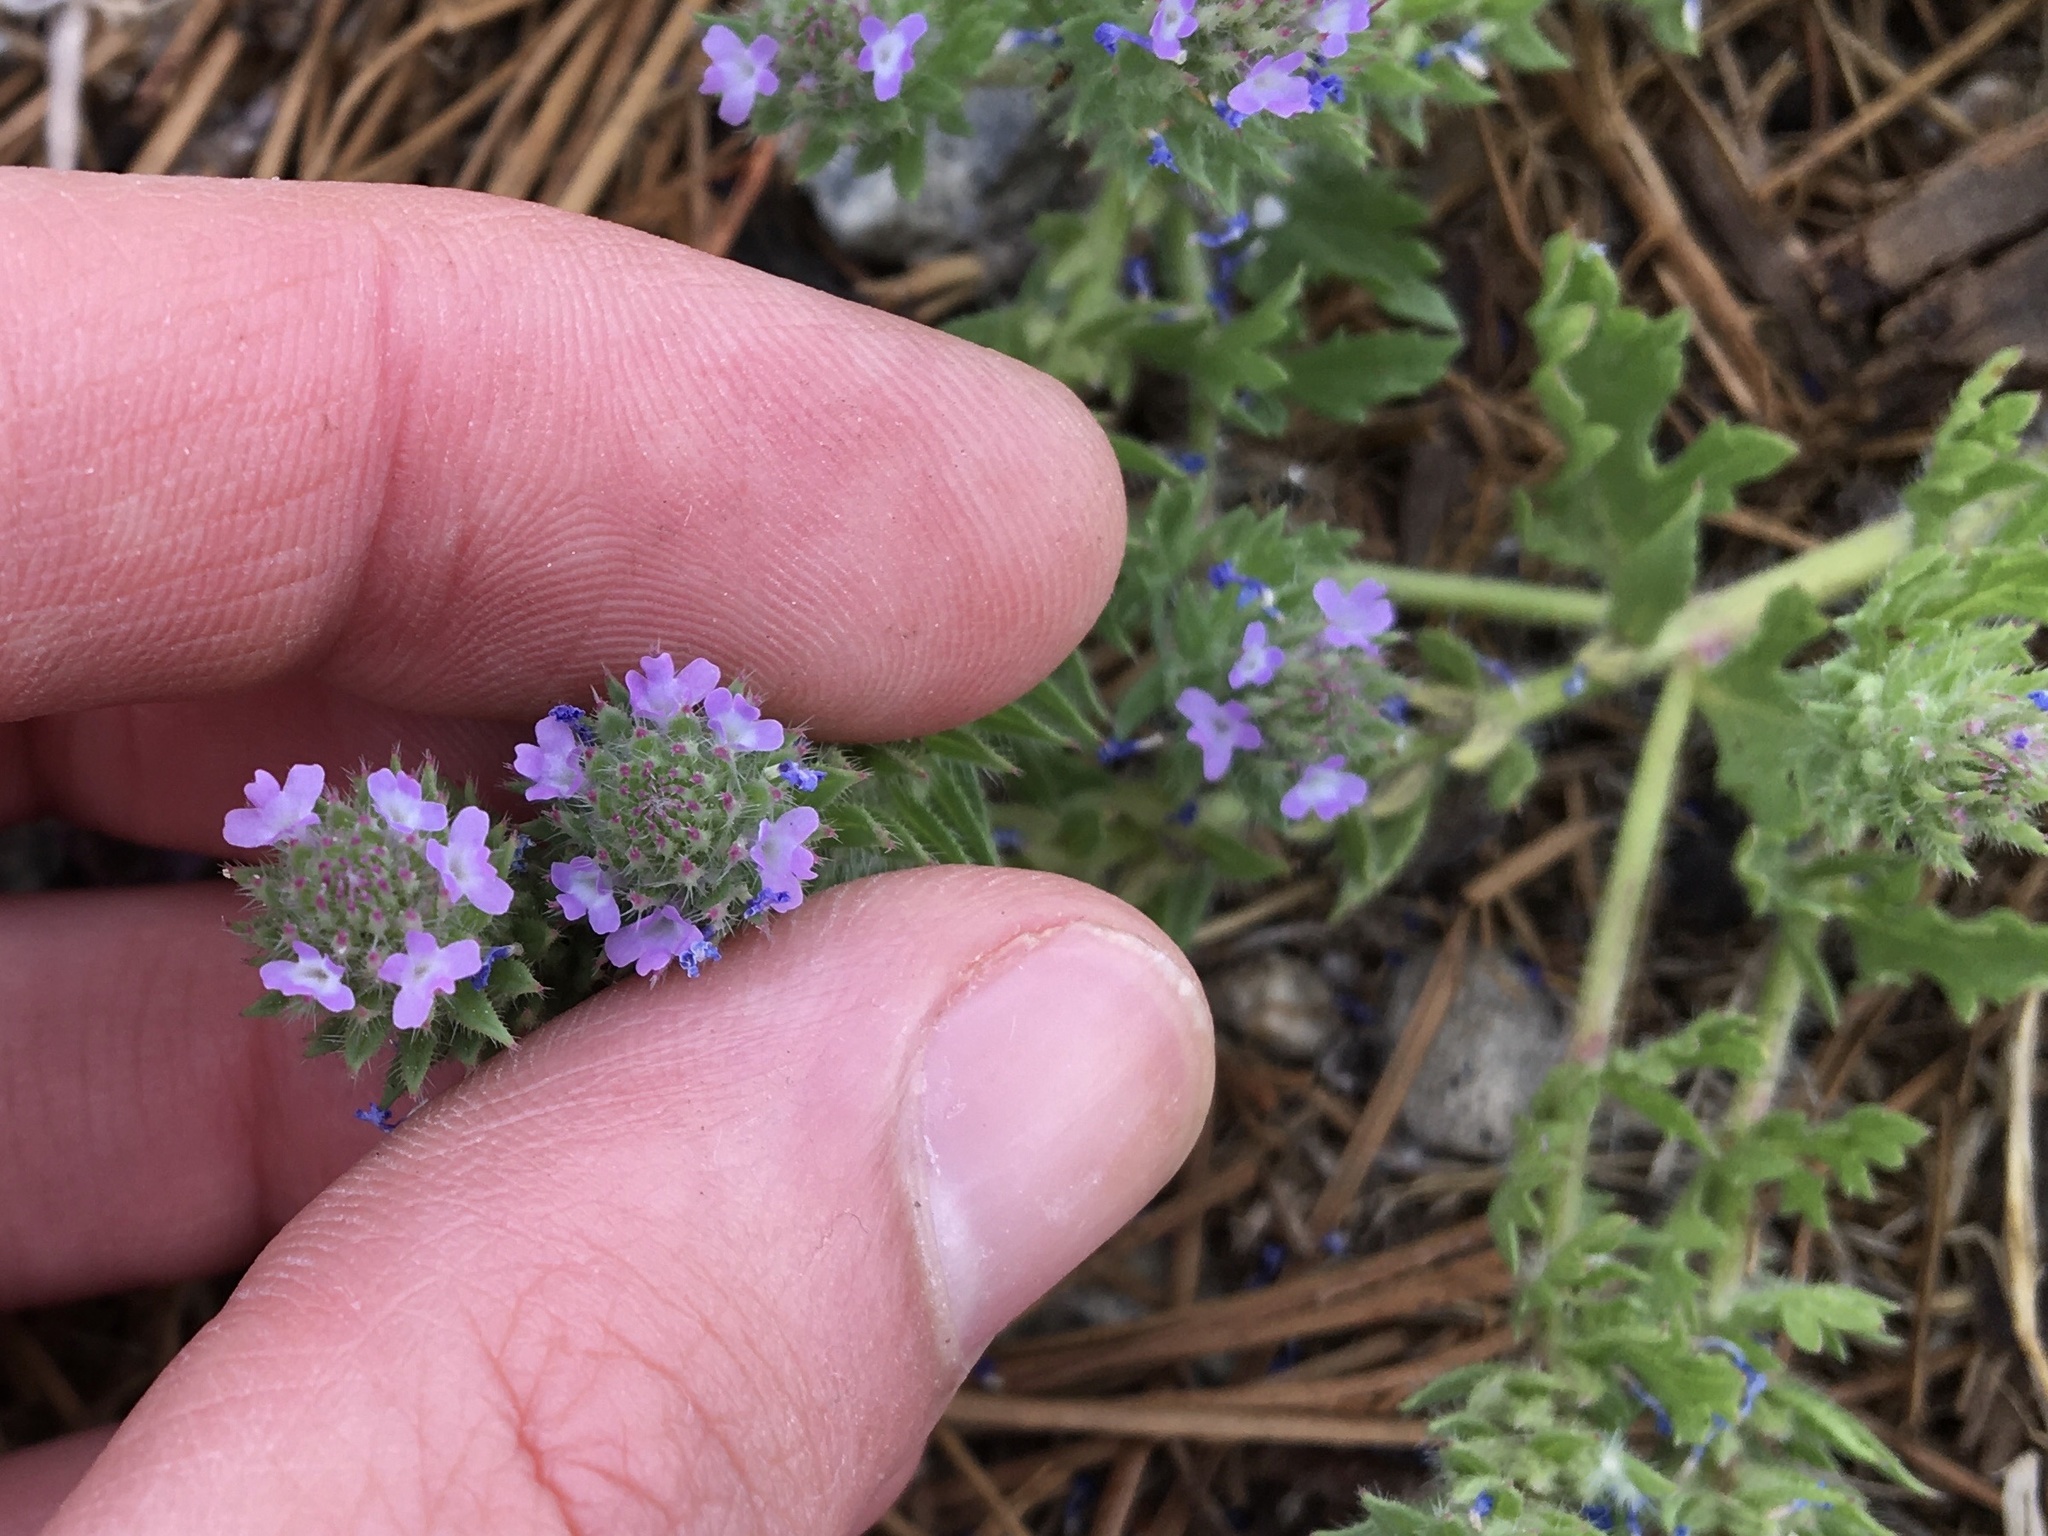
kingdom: Plantae
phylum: Tracheophyta
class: Magnoliopsida
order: Lamiales
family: Verbenaceae
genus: Verbena
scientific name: Verbena bracteata
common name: Bracted vervain
